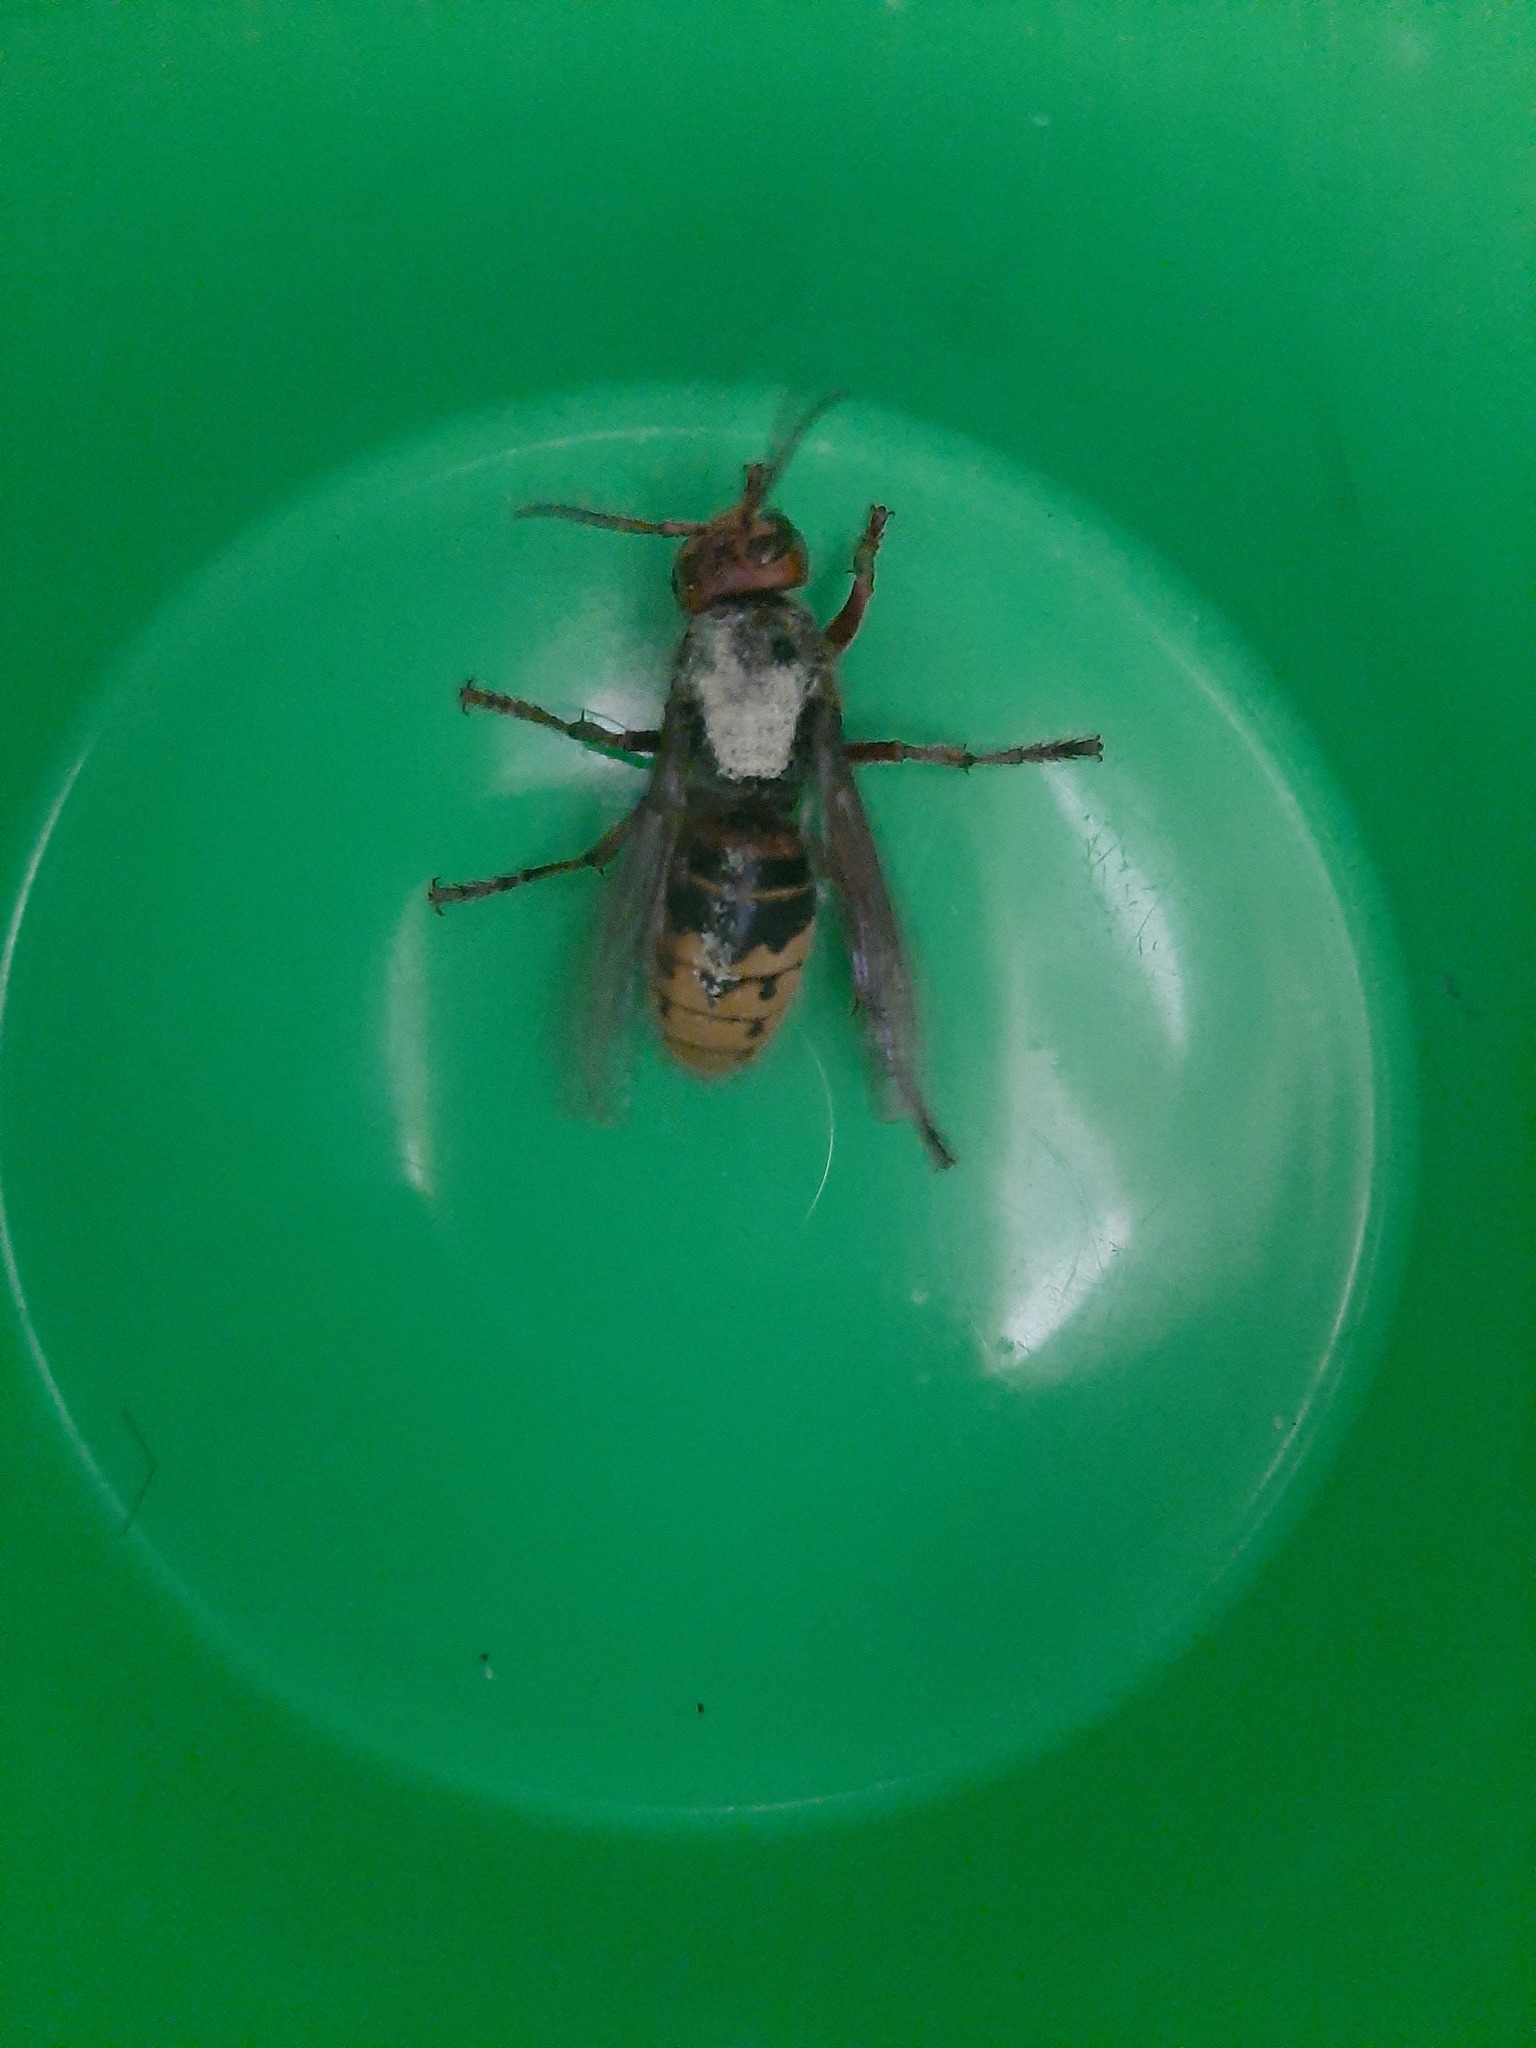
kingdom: Animalia
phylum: Arthropoda
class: Insecta
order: Hymenoptera
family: Vespidae
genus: Vespa
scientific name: Vespa crabro
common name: Hornet
